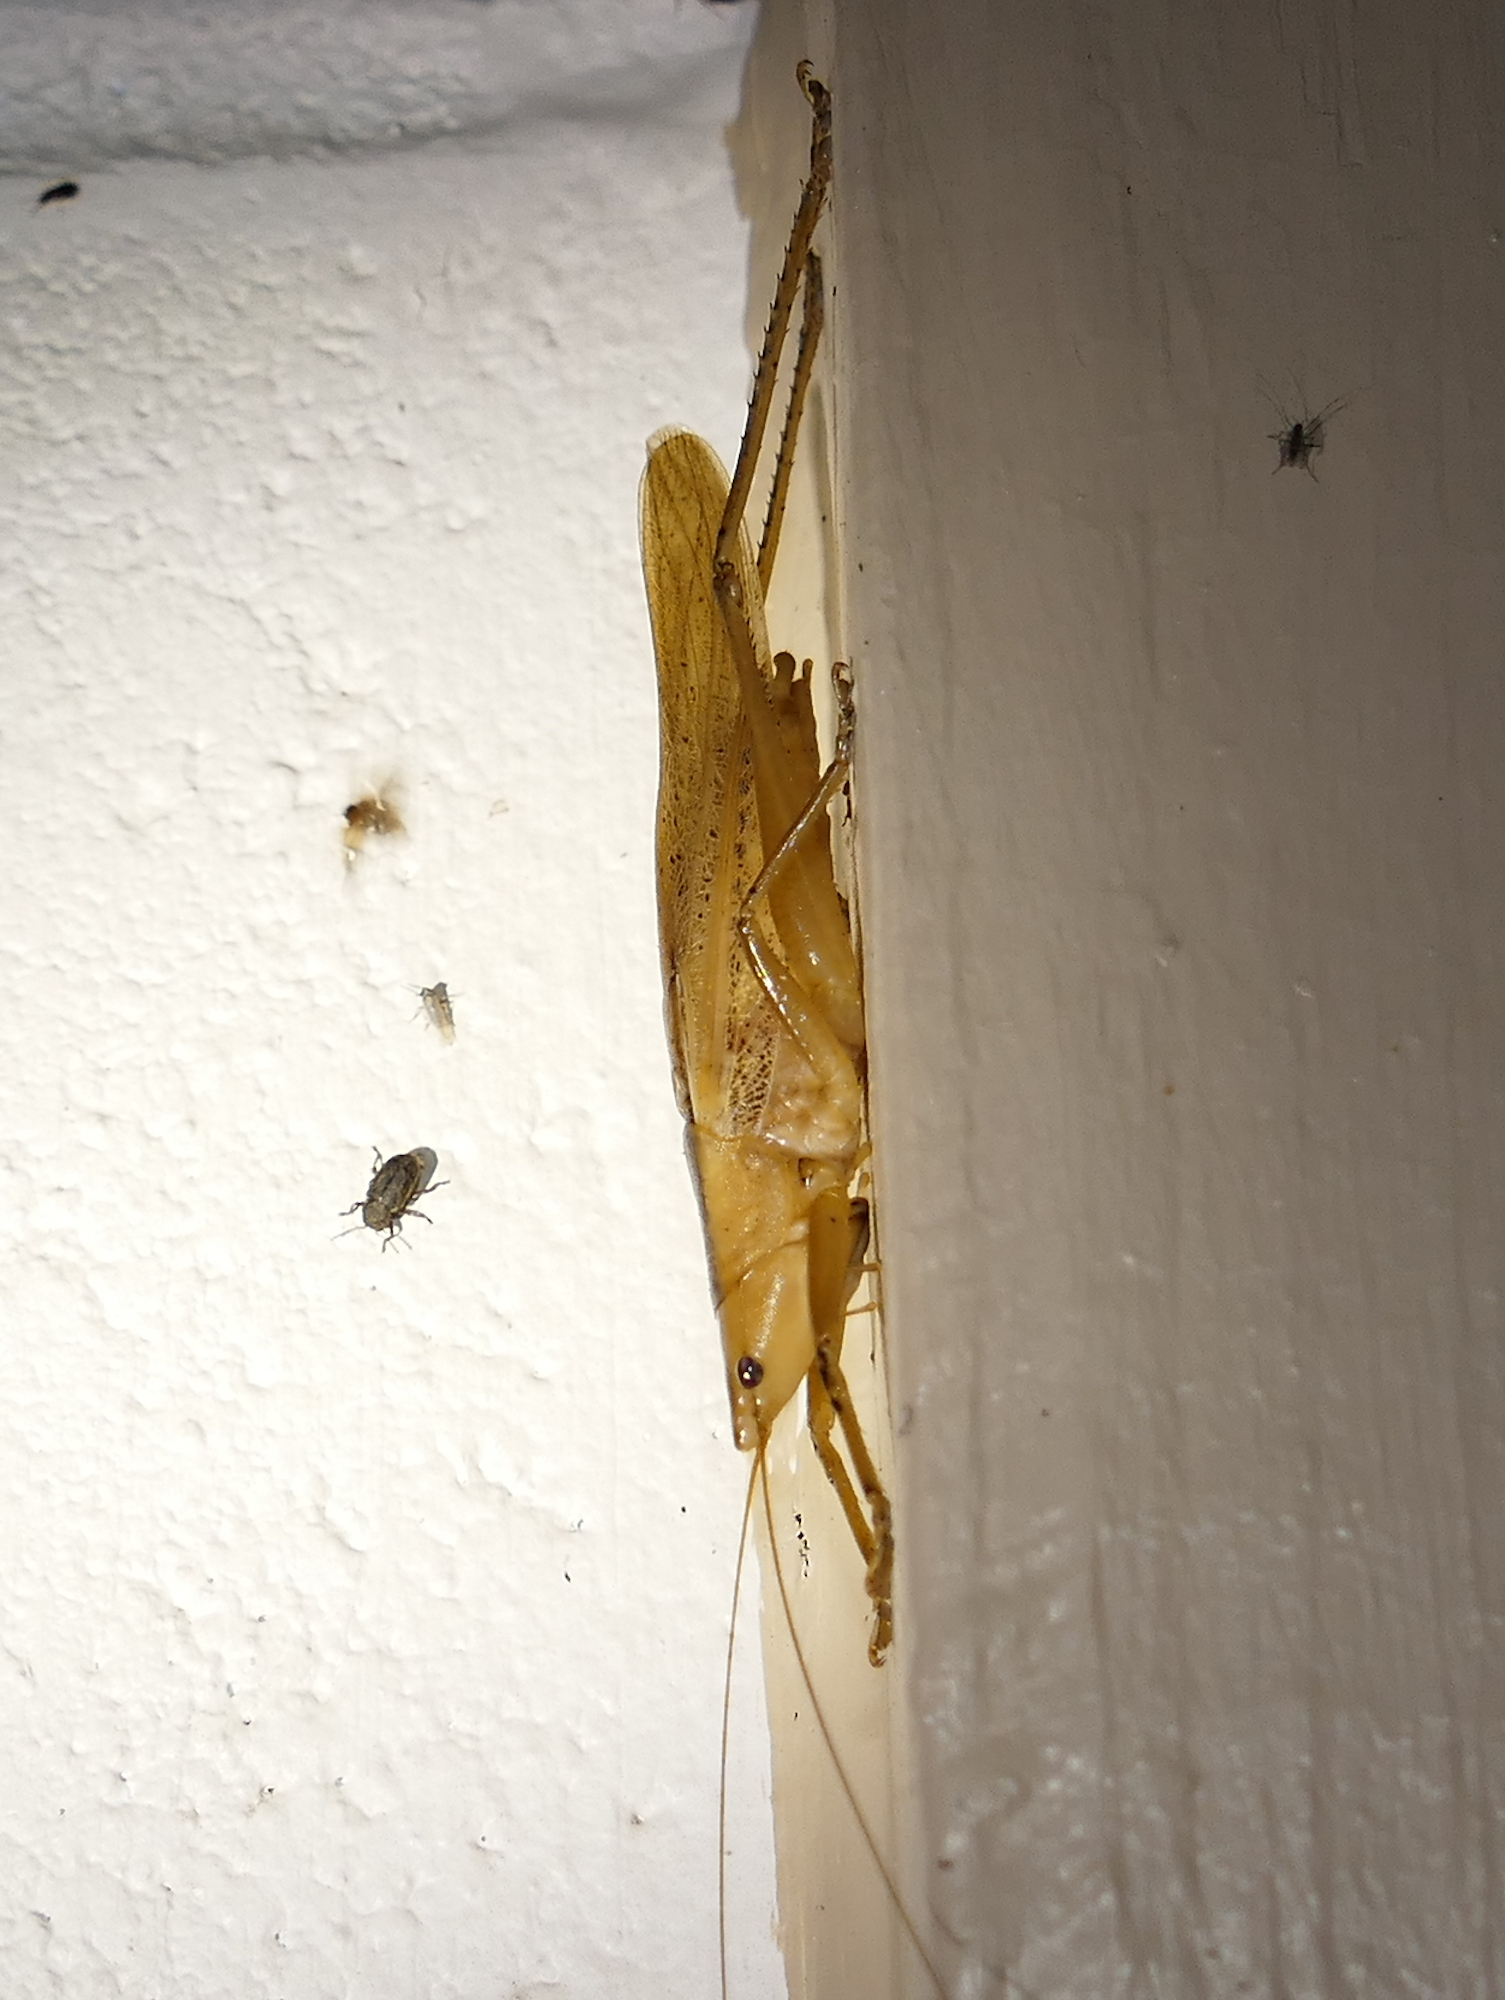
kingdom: Animalia
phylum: Arthropoda
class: Insecta
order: Orthoptera
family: Tettigoniidae
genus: Bucrates
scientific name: Bucrates malivolans
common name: Cattail conehead
